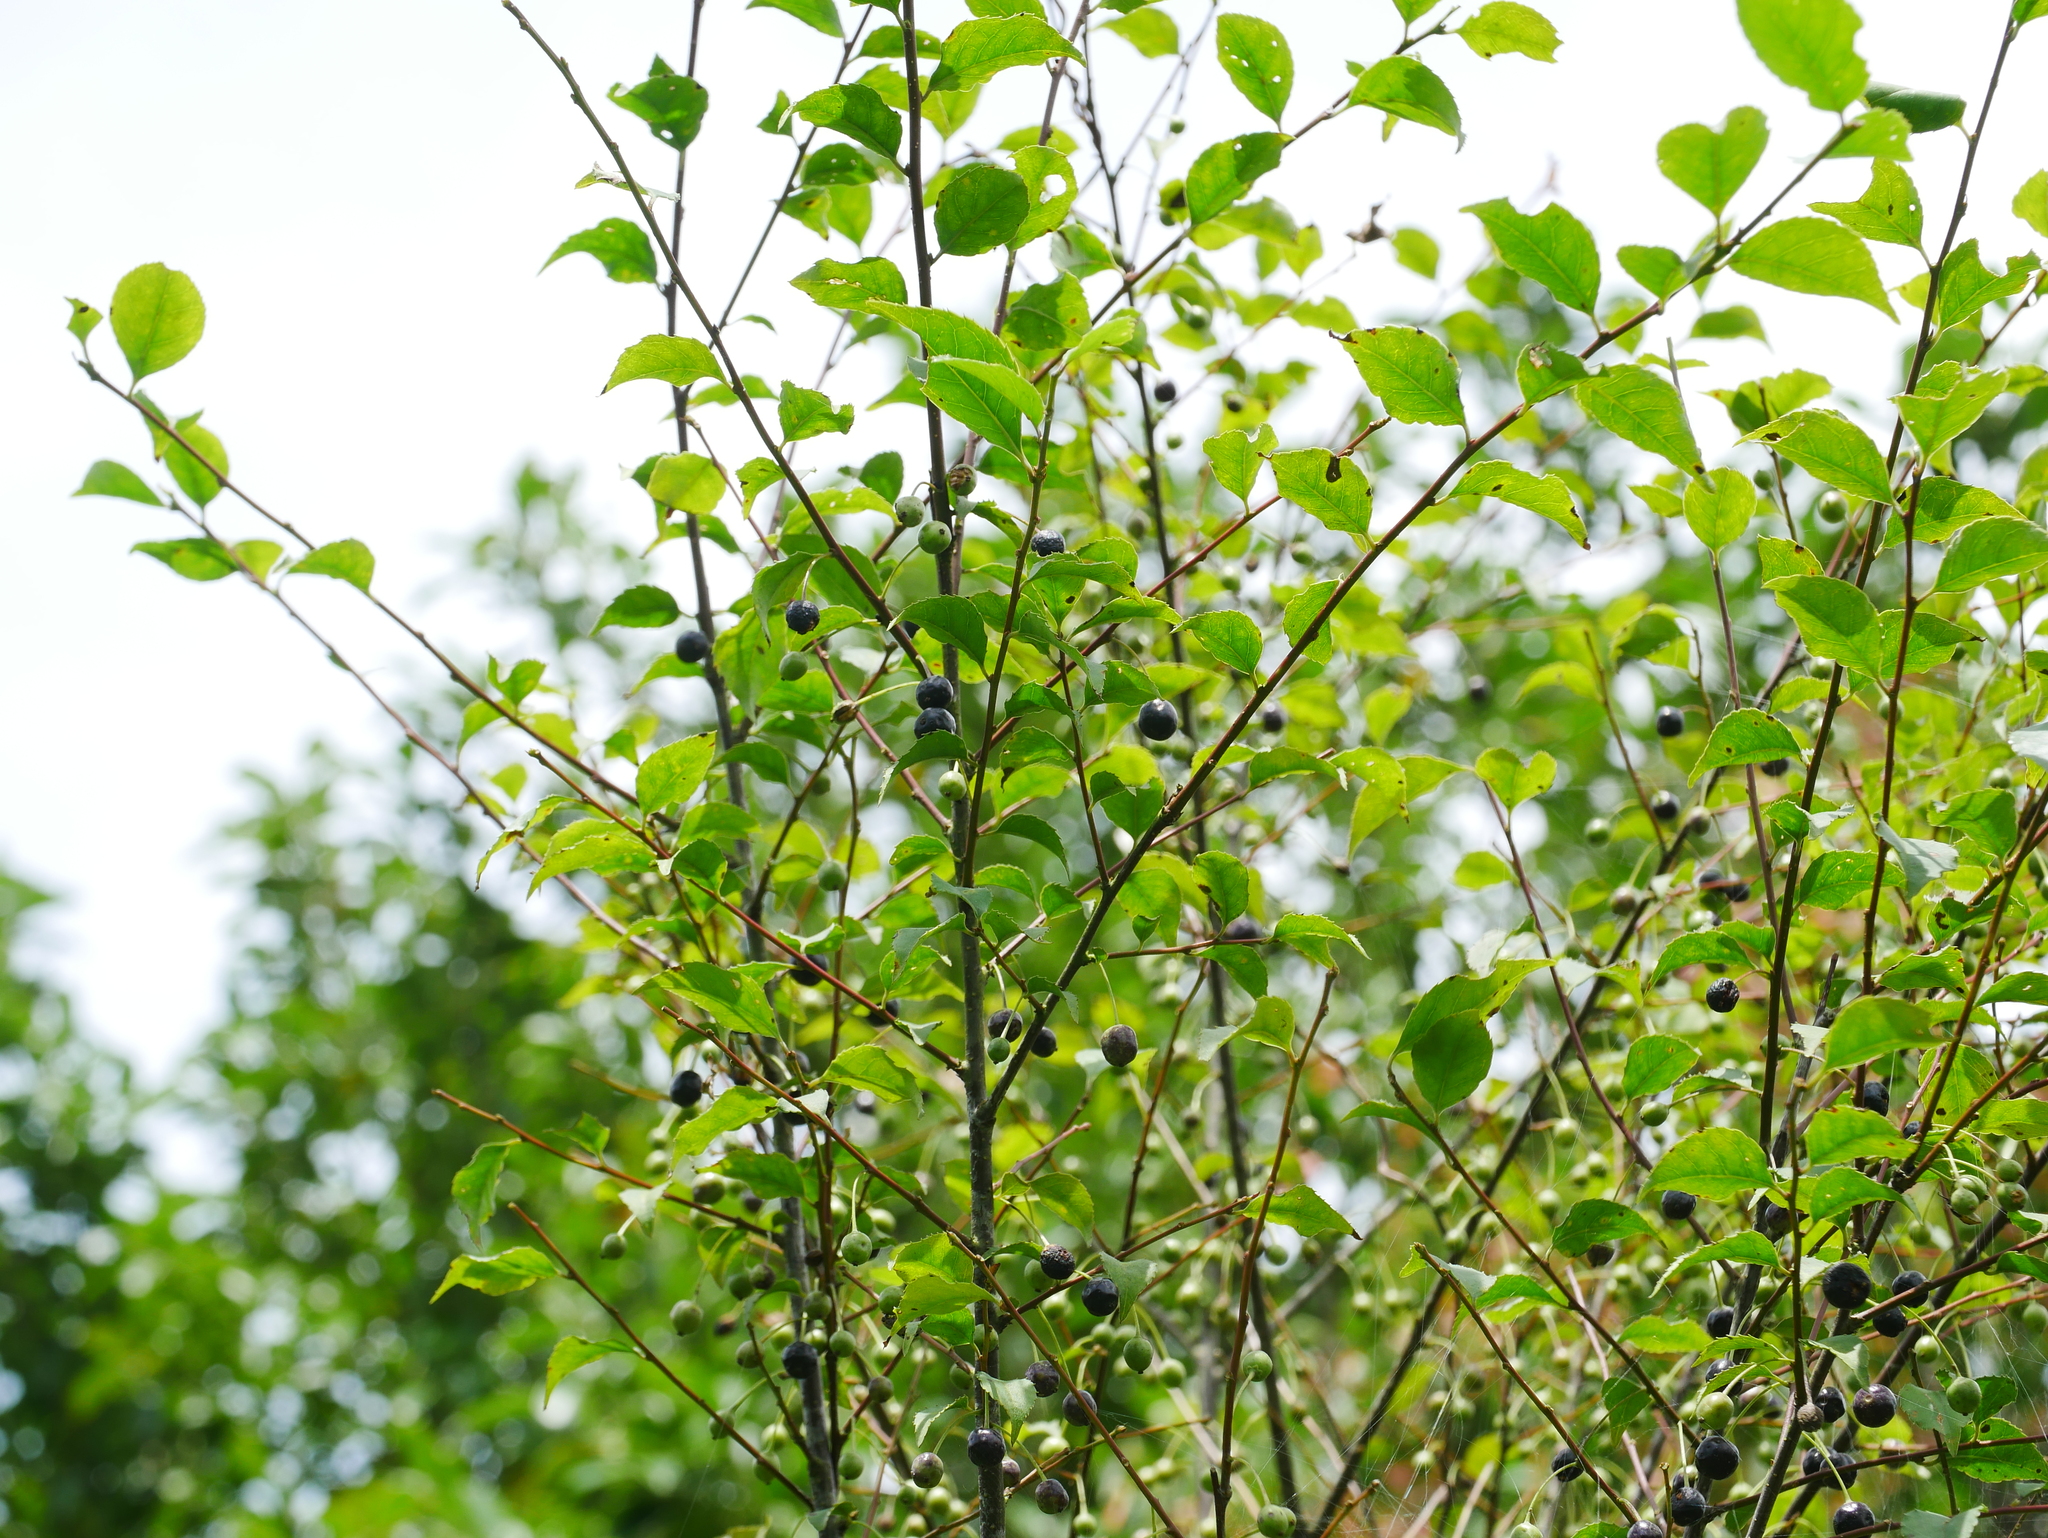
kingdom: Plantae
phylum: Tracheophyta
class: Magnoliopsida
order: Aquifoliales
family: Aquifoliaceae
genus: Ilex
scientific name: Ilex asprella
